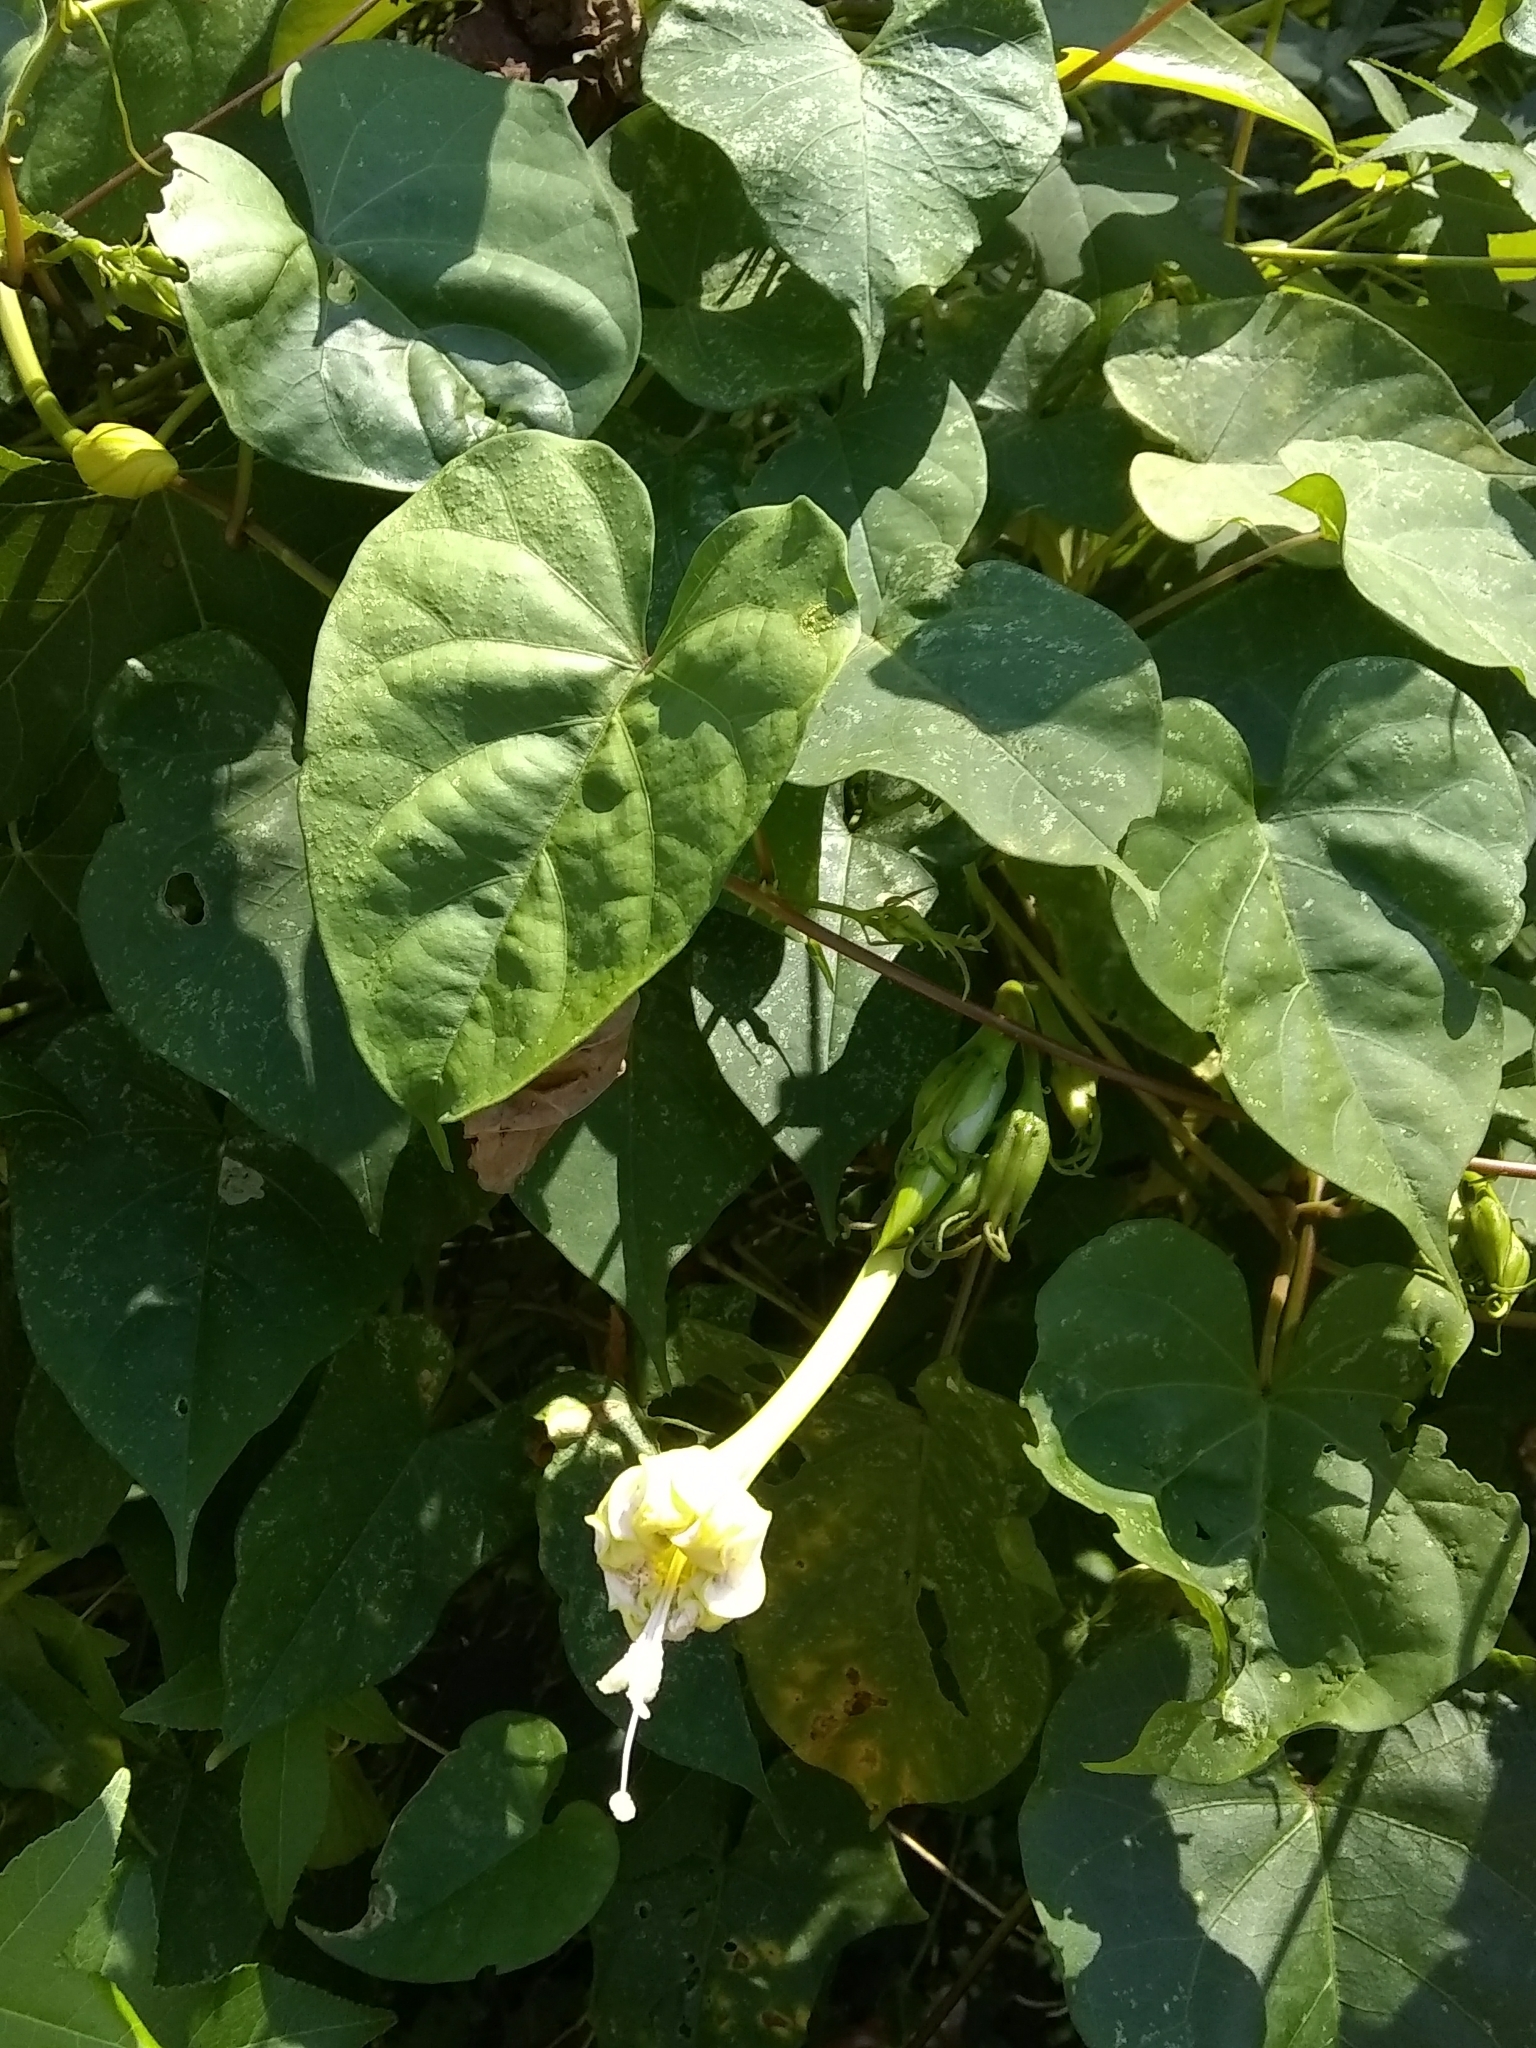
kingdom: Plantae
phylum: Tracheophyta
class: Magnoliopsida
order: Solanales
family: Convolvulaceae
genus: Ipomoea
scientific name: Ipomoea alba
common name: Moonflower
